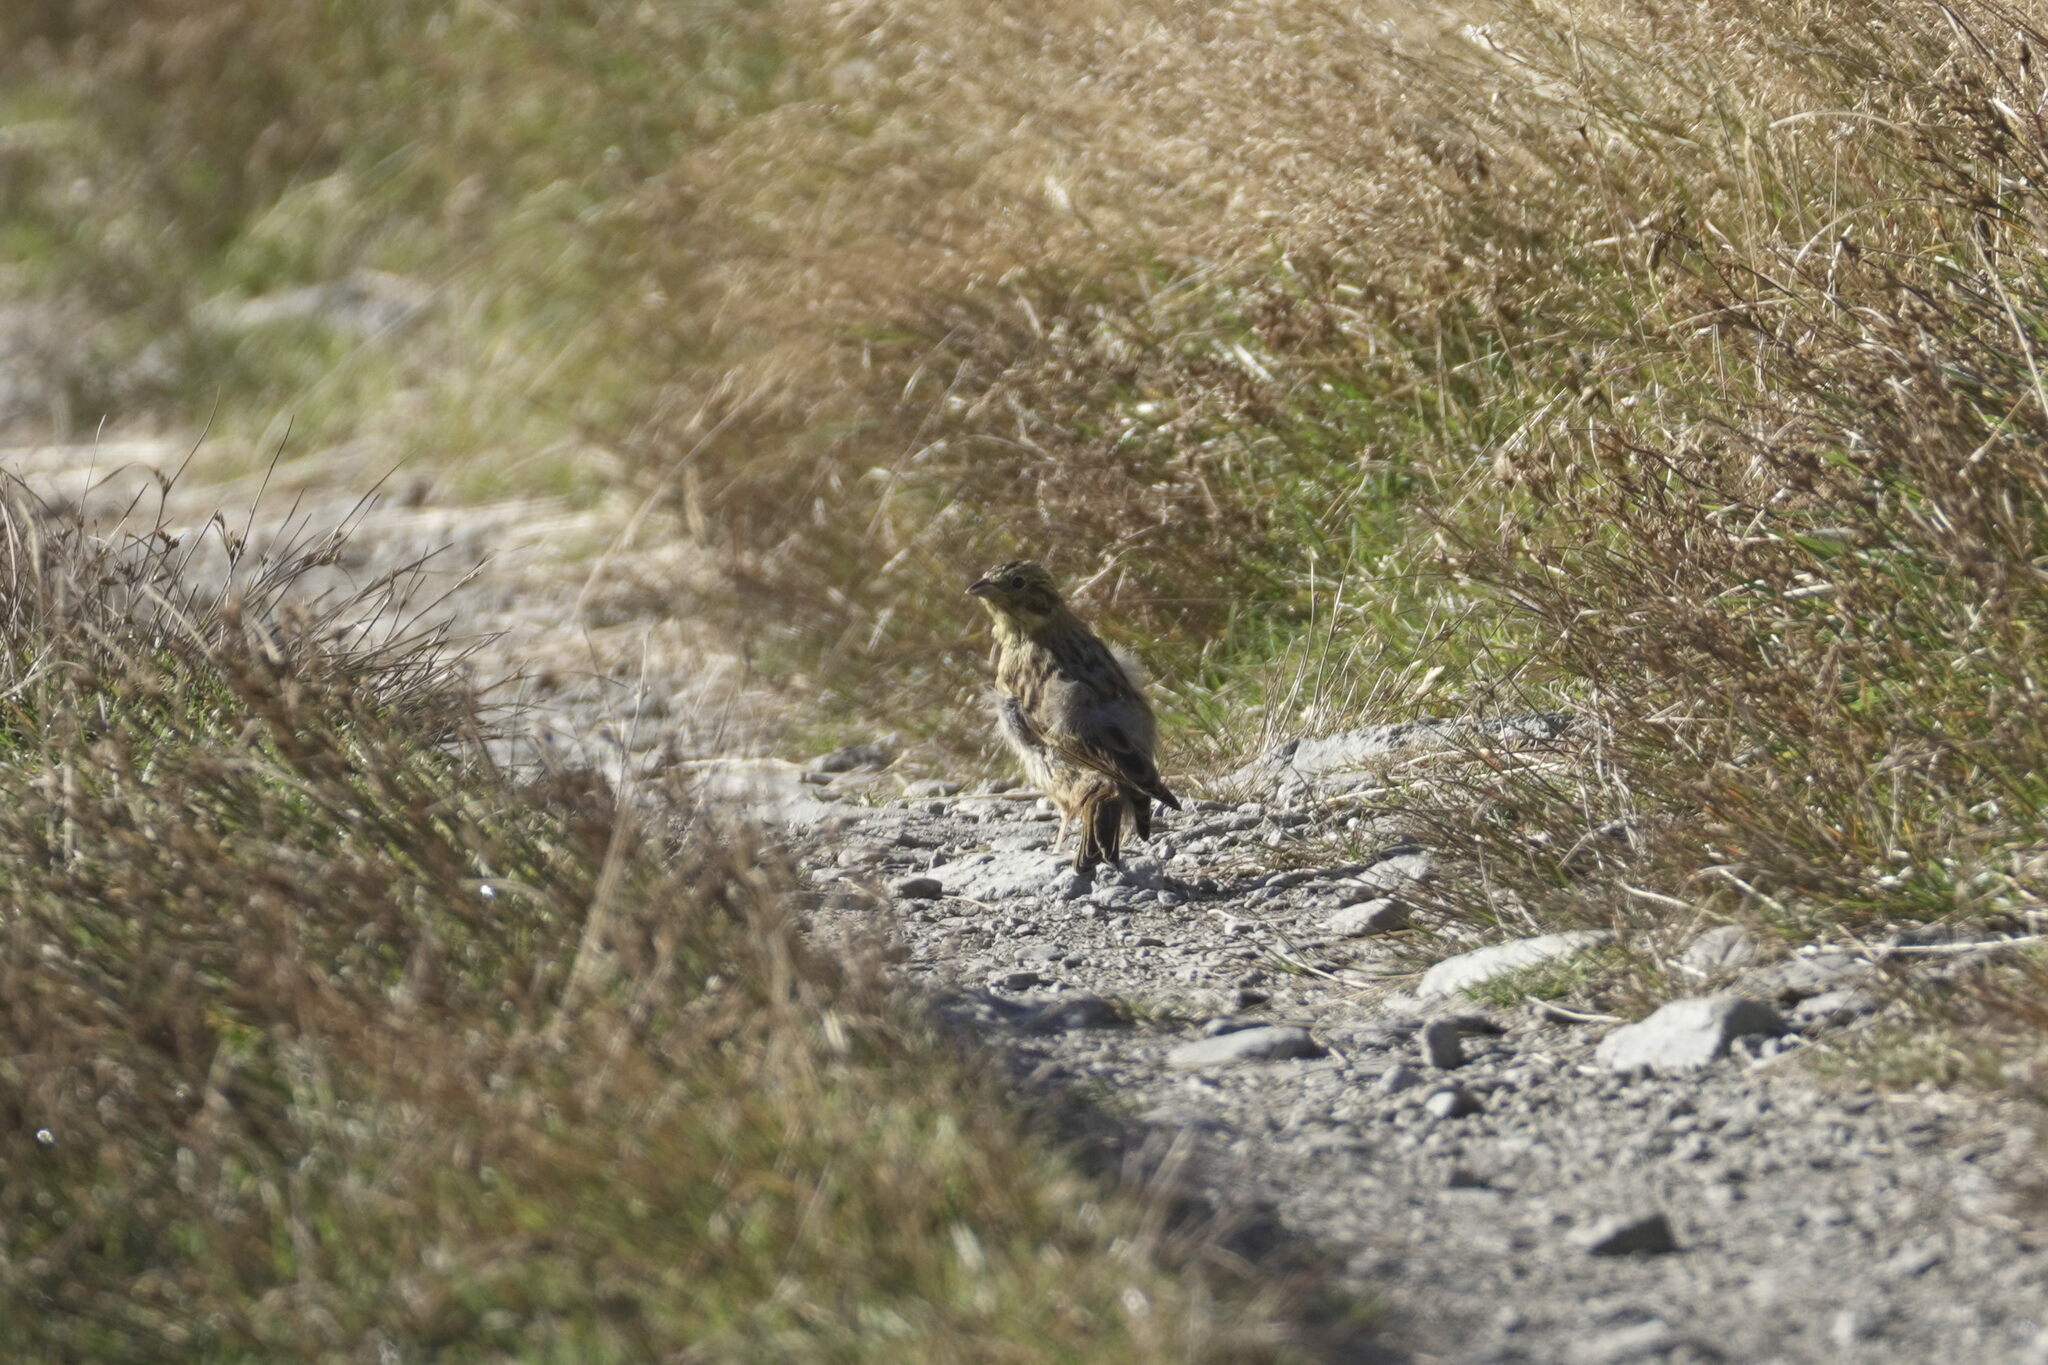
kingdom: Animalia
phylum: Chordata
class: Aves
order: Passeriformes
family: Emberizidae
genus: Emberiza
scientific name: Emberiza citrinella
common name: Yellowhammer
